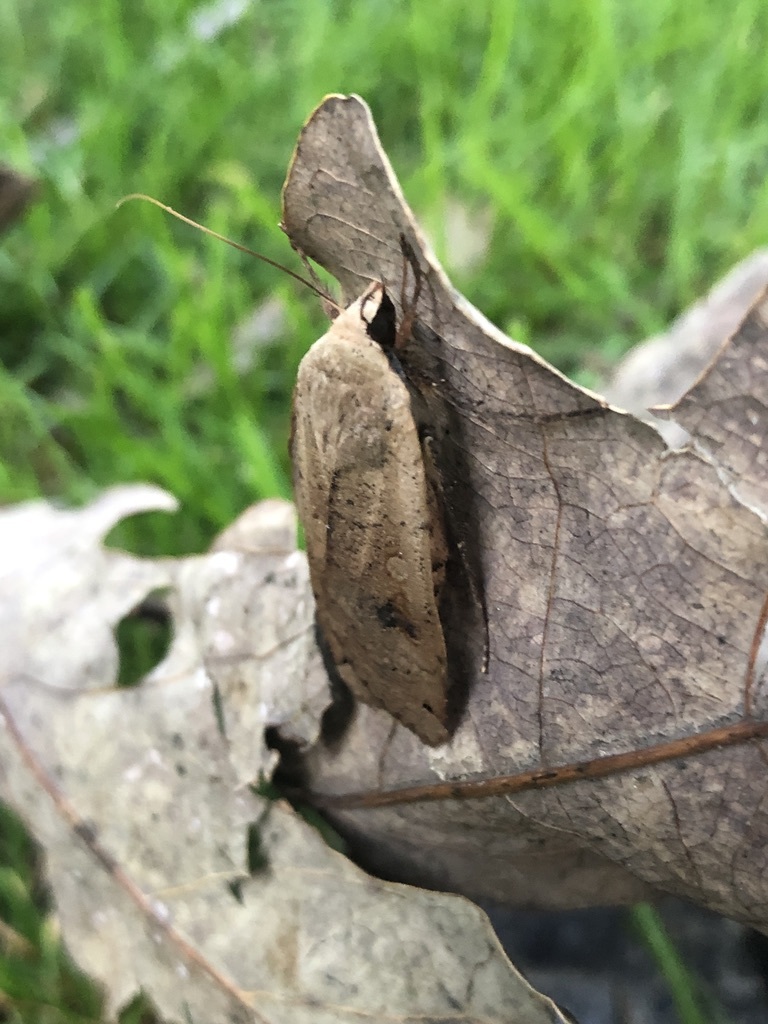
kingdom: Animalia
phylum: Arthropoda
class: Insecta
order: Lepidoptera
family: Noctuidae
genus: Noctua
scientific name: Noctua pronuba
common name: Large yellow underwing
